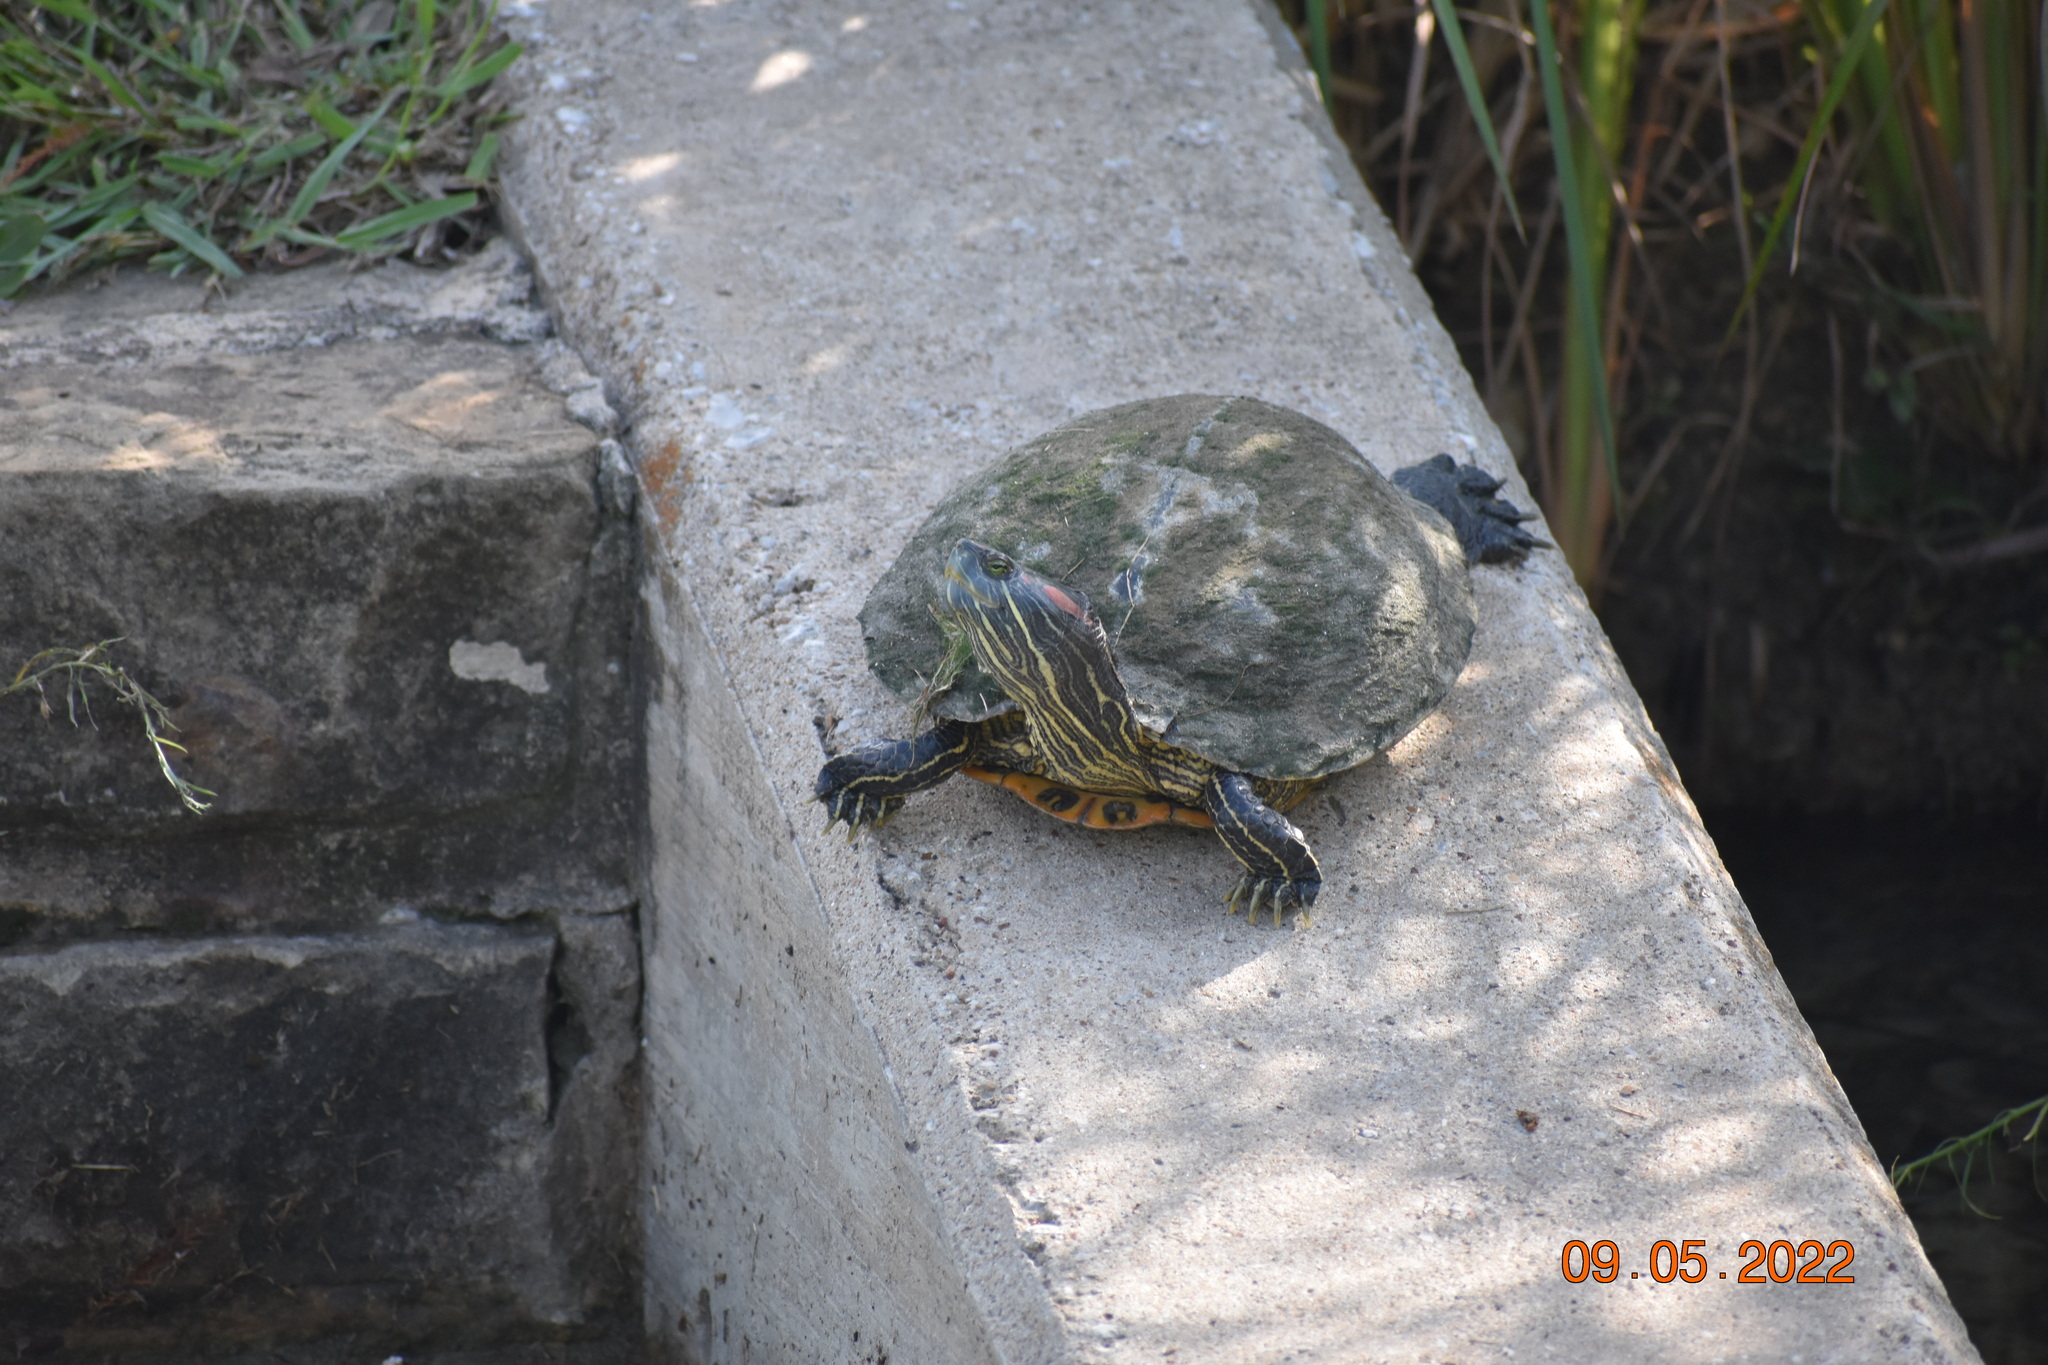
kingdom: Animalia
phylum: Chordata
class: Testudines
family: Emydidae
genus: Trachemys
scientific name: Trachemys scripta
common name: Slider
